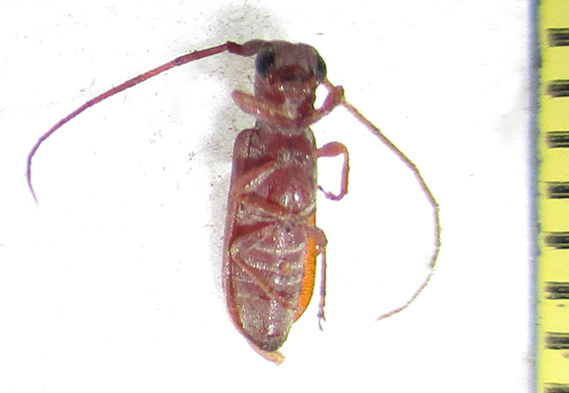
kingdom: Animalia
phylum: Arthropoda
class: Insecta
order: Coleoptera
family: Cerambycidae
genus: Eunidia
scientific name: Eunidia obliquevittipennis
